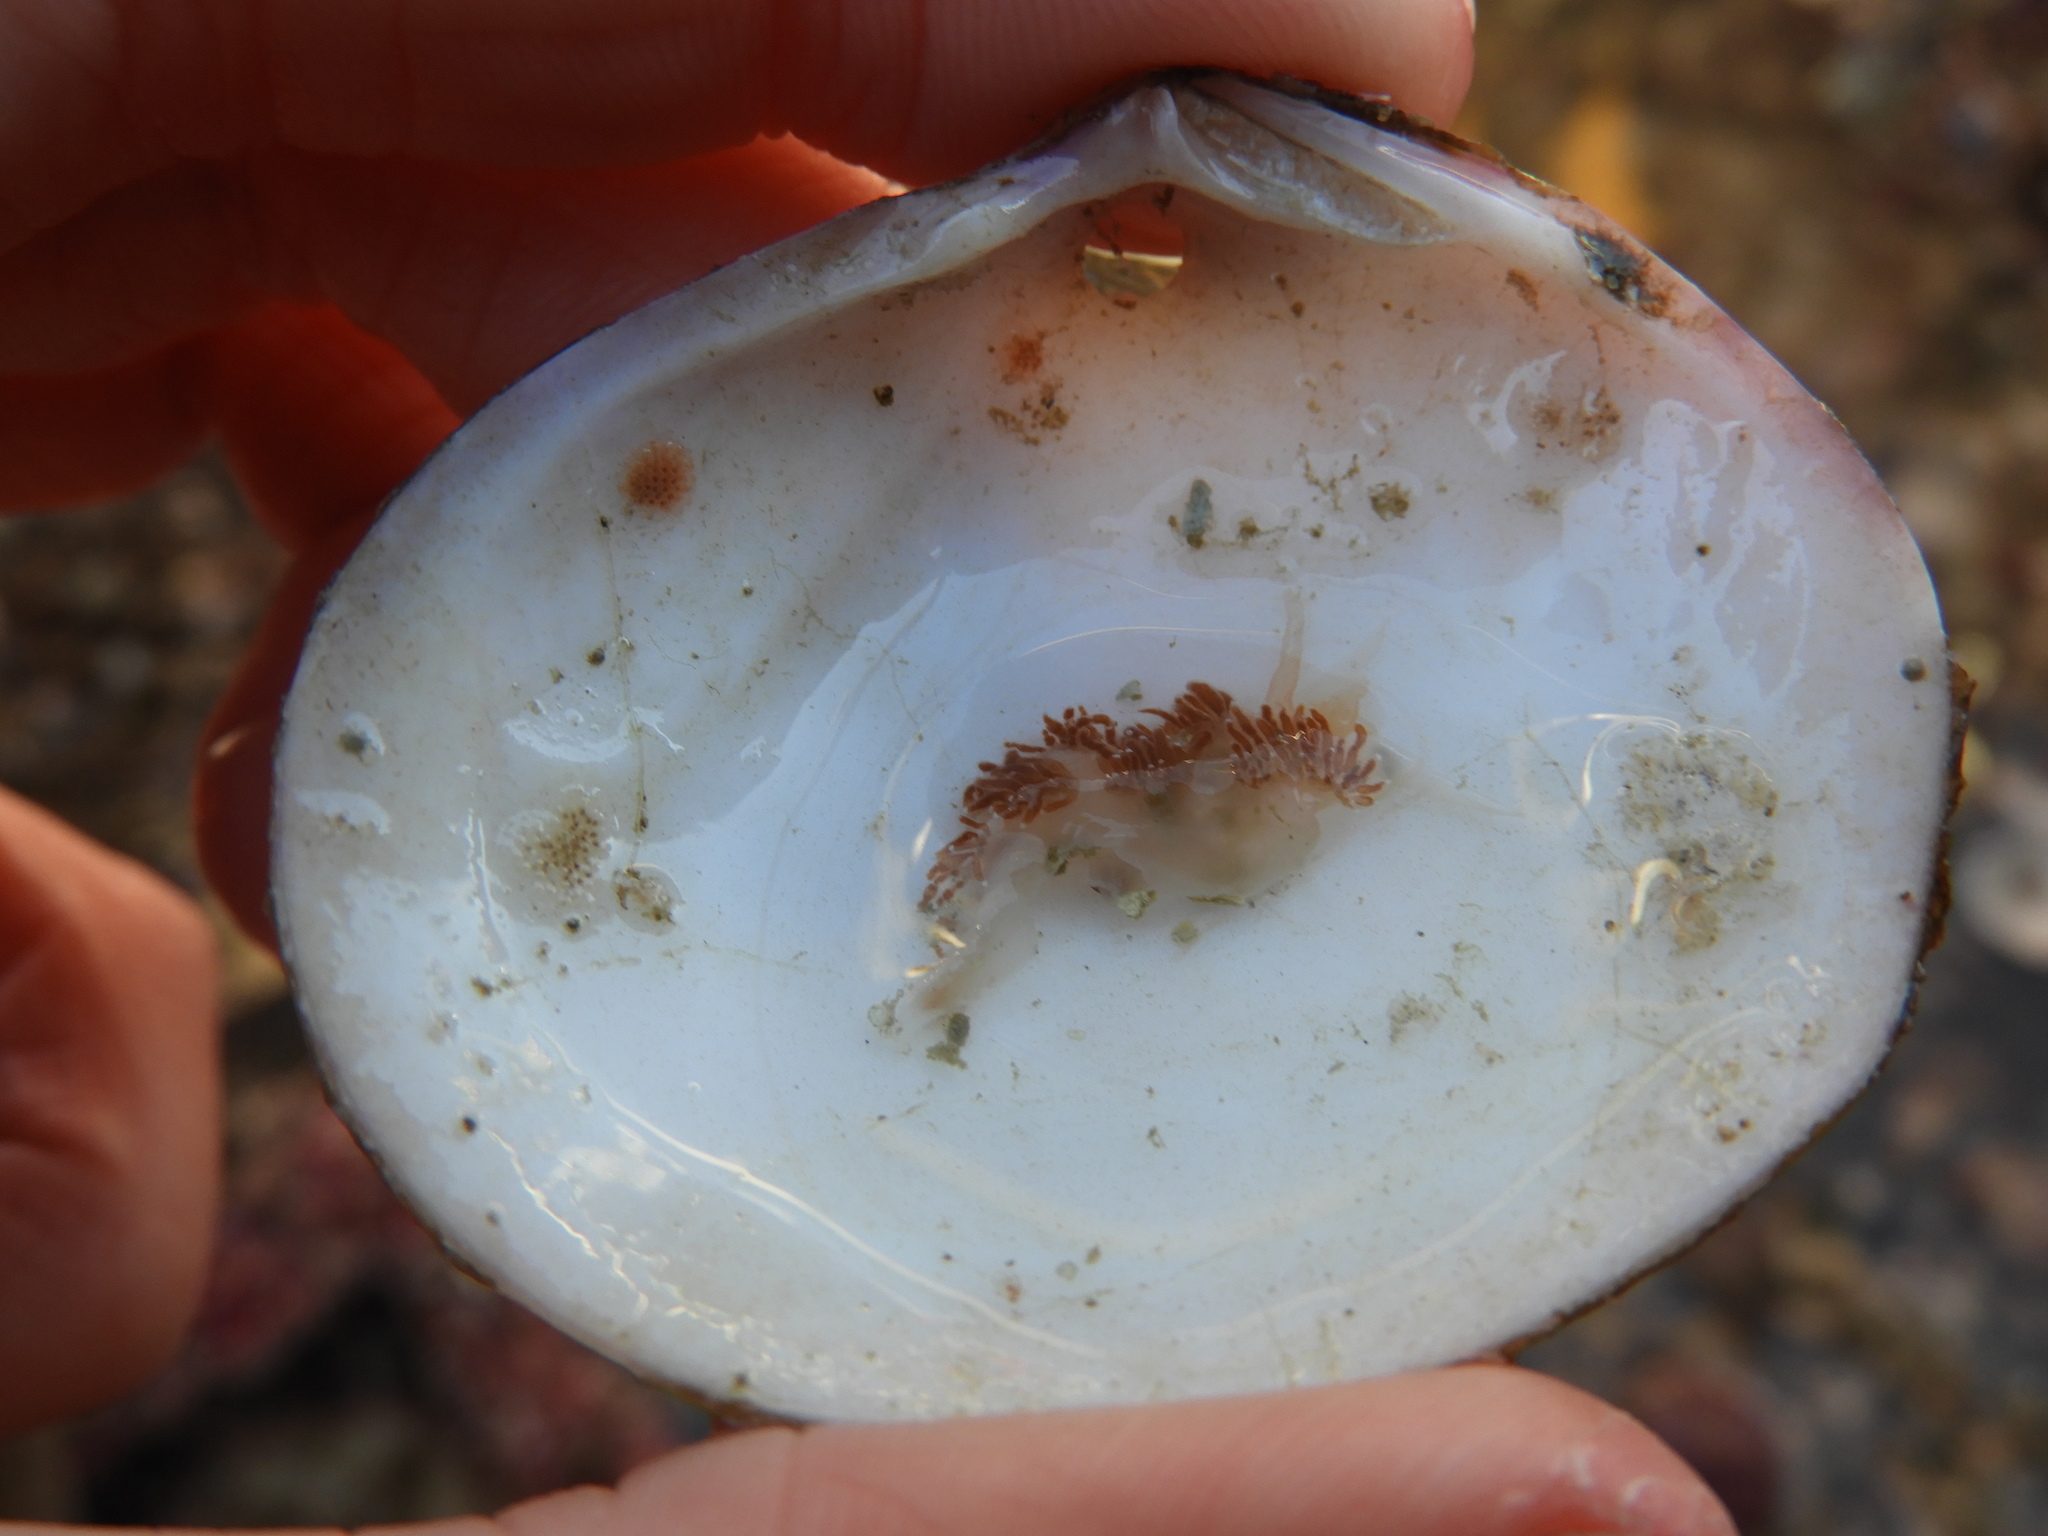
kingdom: Animalia
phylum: Mollusca
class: Gastropoda
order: Nudibranchia
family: Coryphellidae
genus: Coryphella
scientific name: Coryphella verrucosa
